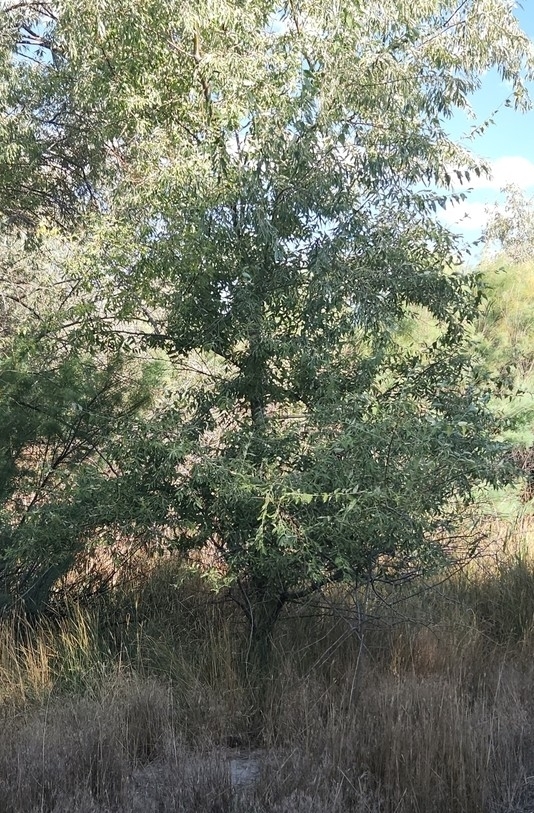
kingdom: Plantae
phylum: Tracheophyta
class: Magnoliopsida
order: Rosales
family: Elaeagnaceae
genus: Elaeagnus
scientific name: Elaeagnus angustifolia
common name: Russian olive
